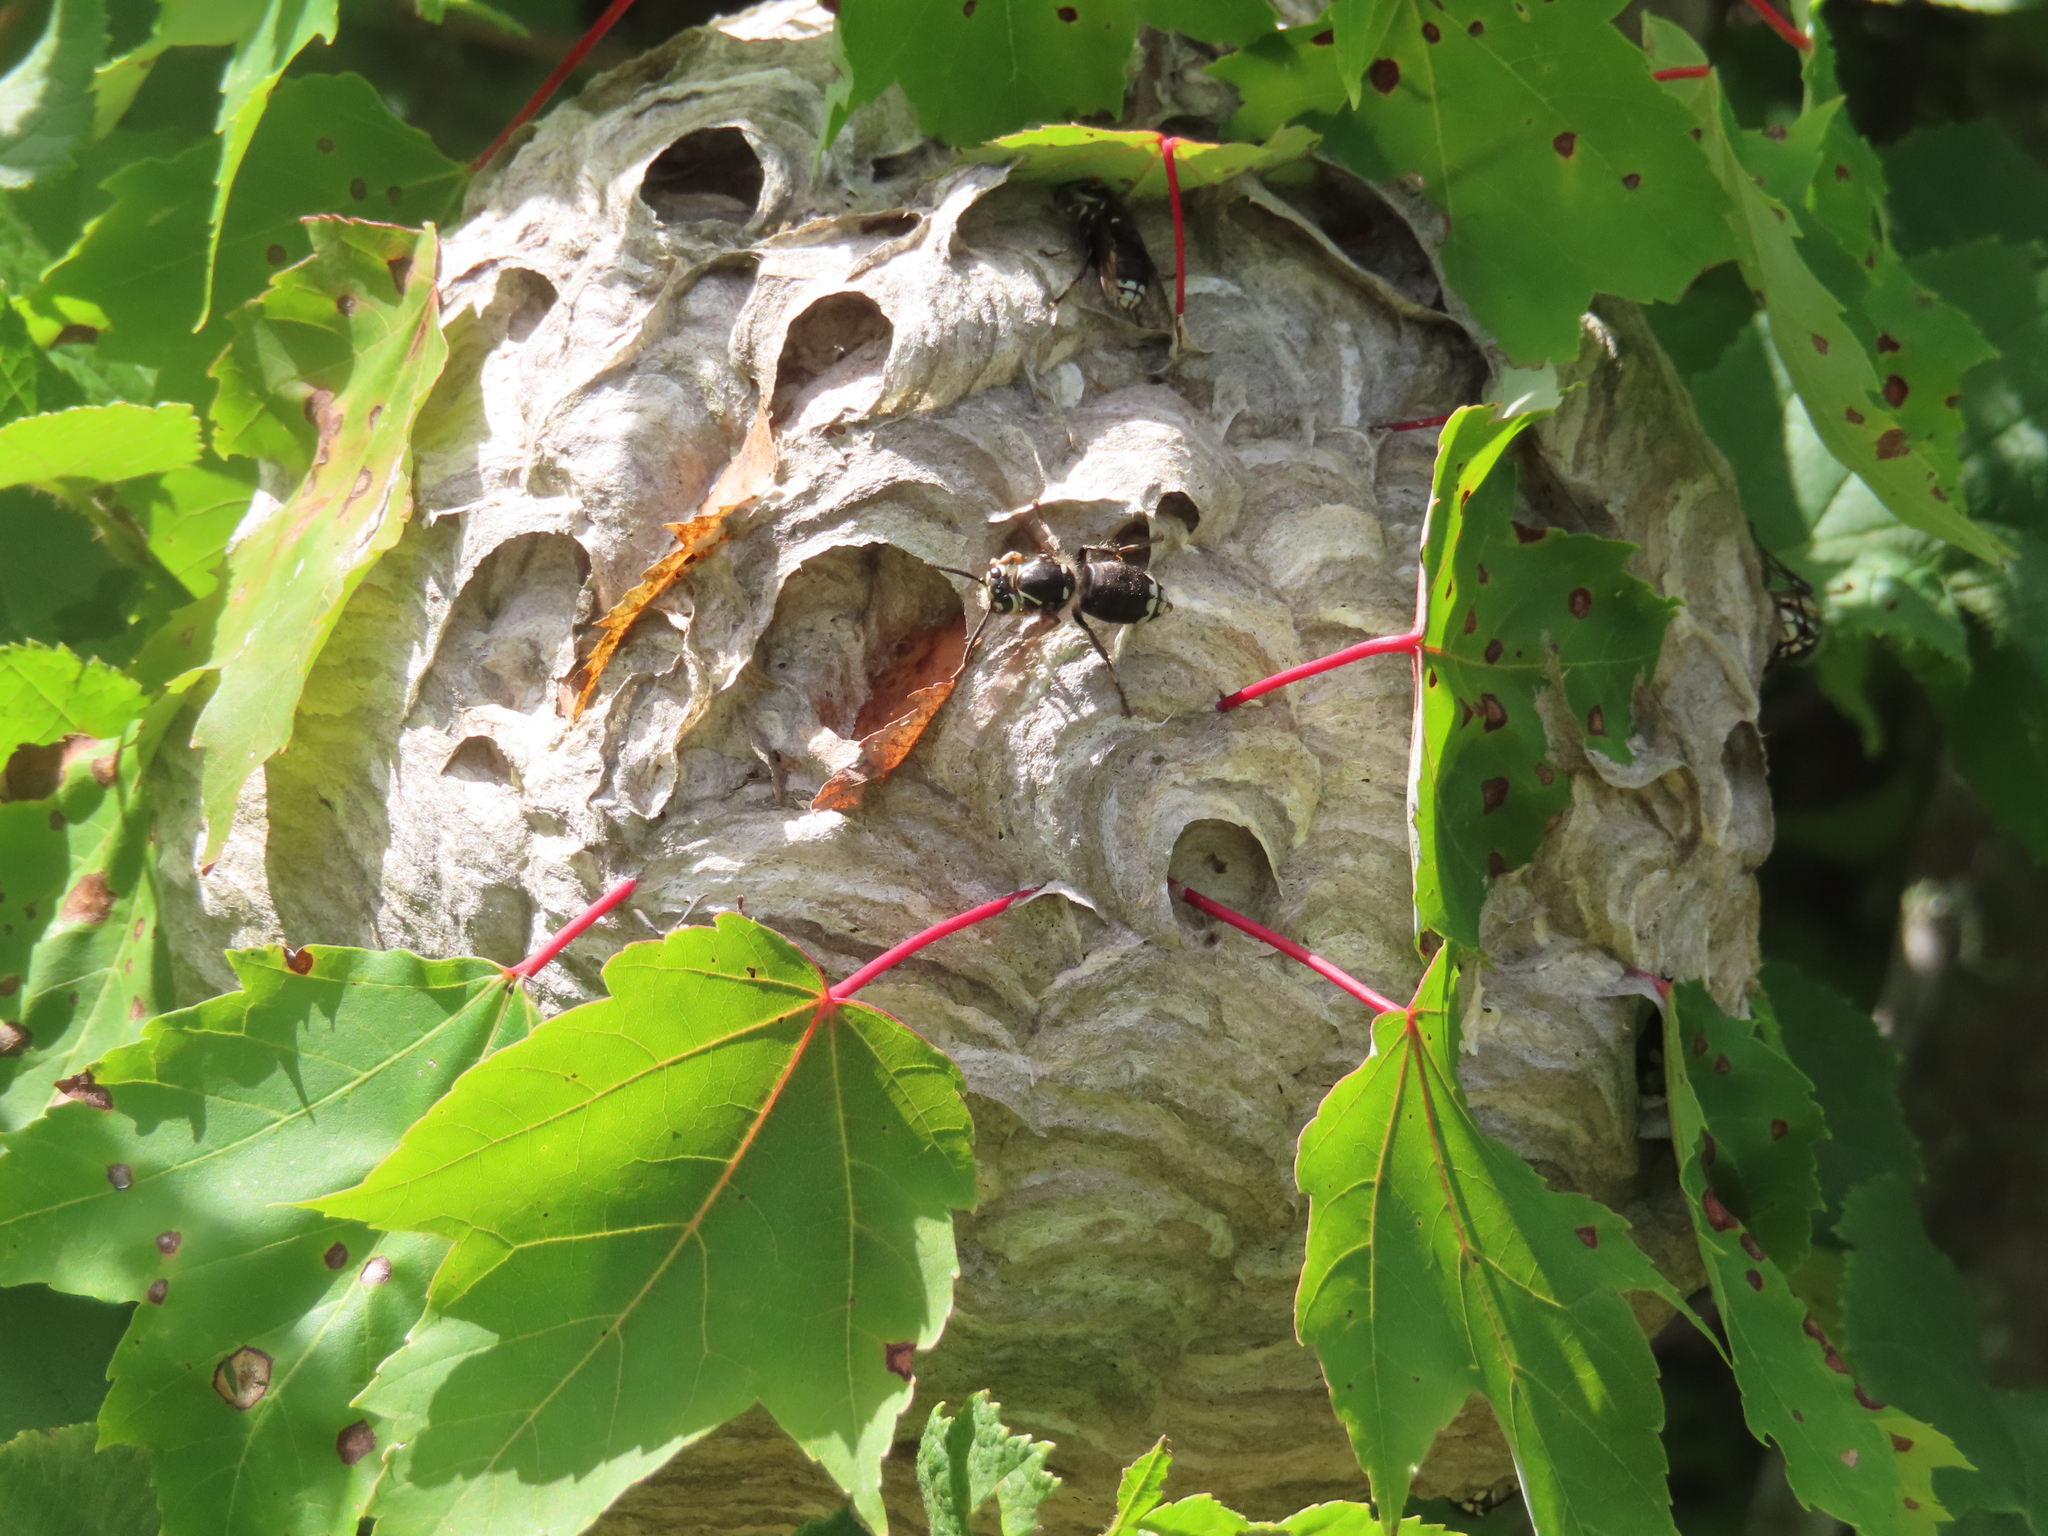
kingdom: Animalia
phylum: Arthropoda
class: Insecta
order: Hymenoptera
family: Vespidae
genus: Dolichovespula
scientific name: Dolichovespula maculata
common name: Bald-faced hornet
